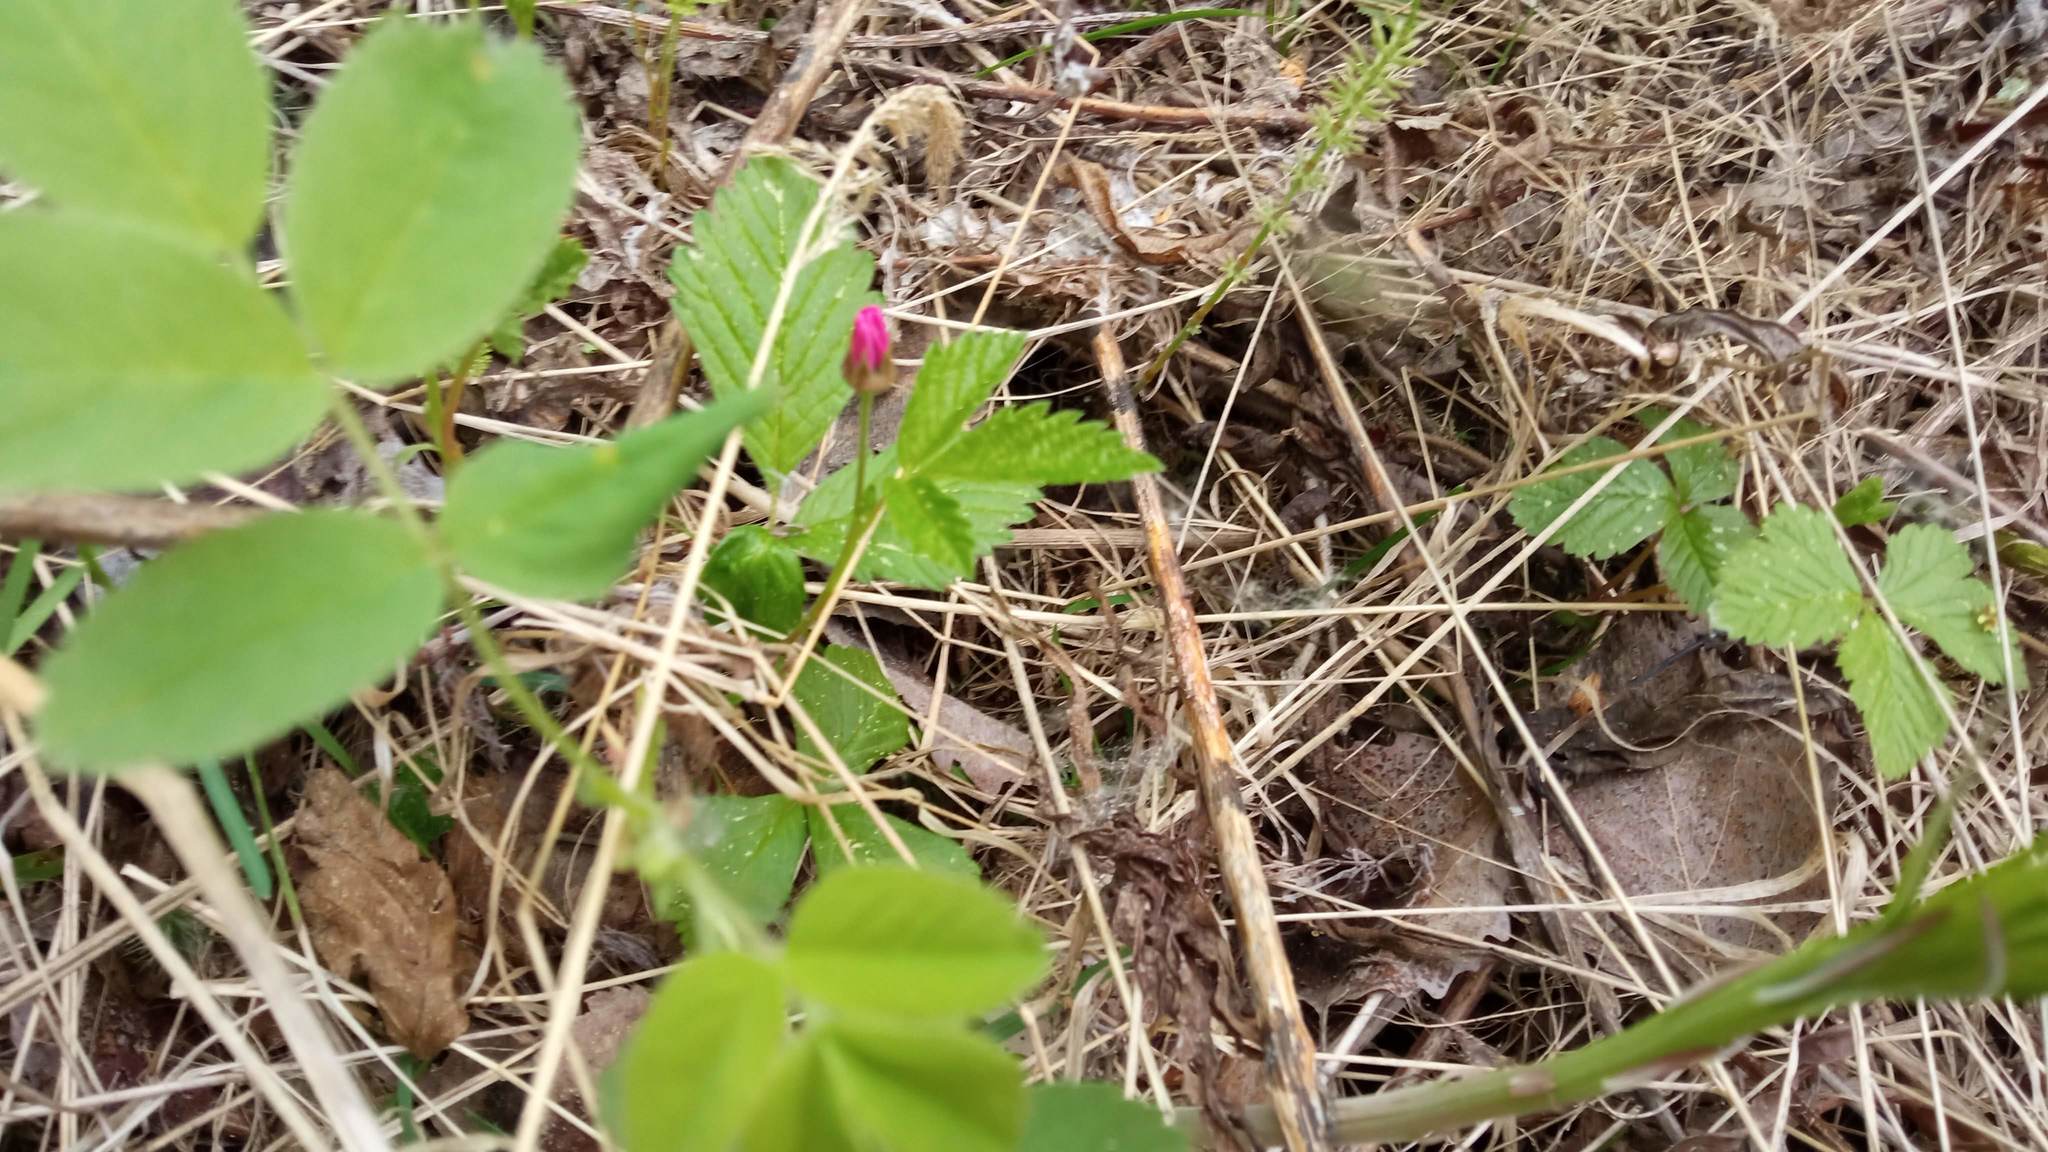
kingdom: Plantae
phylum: Tracheophyta
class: Magnoliopsida
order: Rosales
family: Rosaceae
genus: Rubus
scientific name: Rubus arcticus
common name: Arctic bramble
